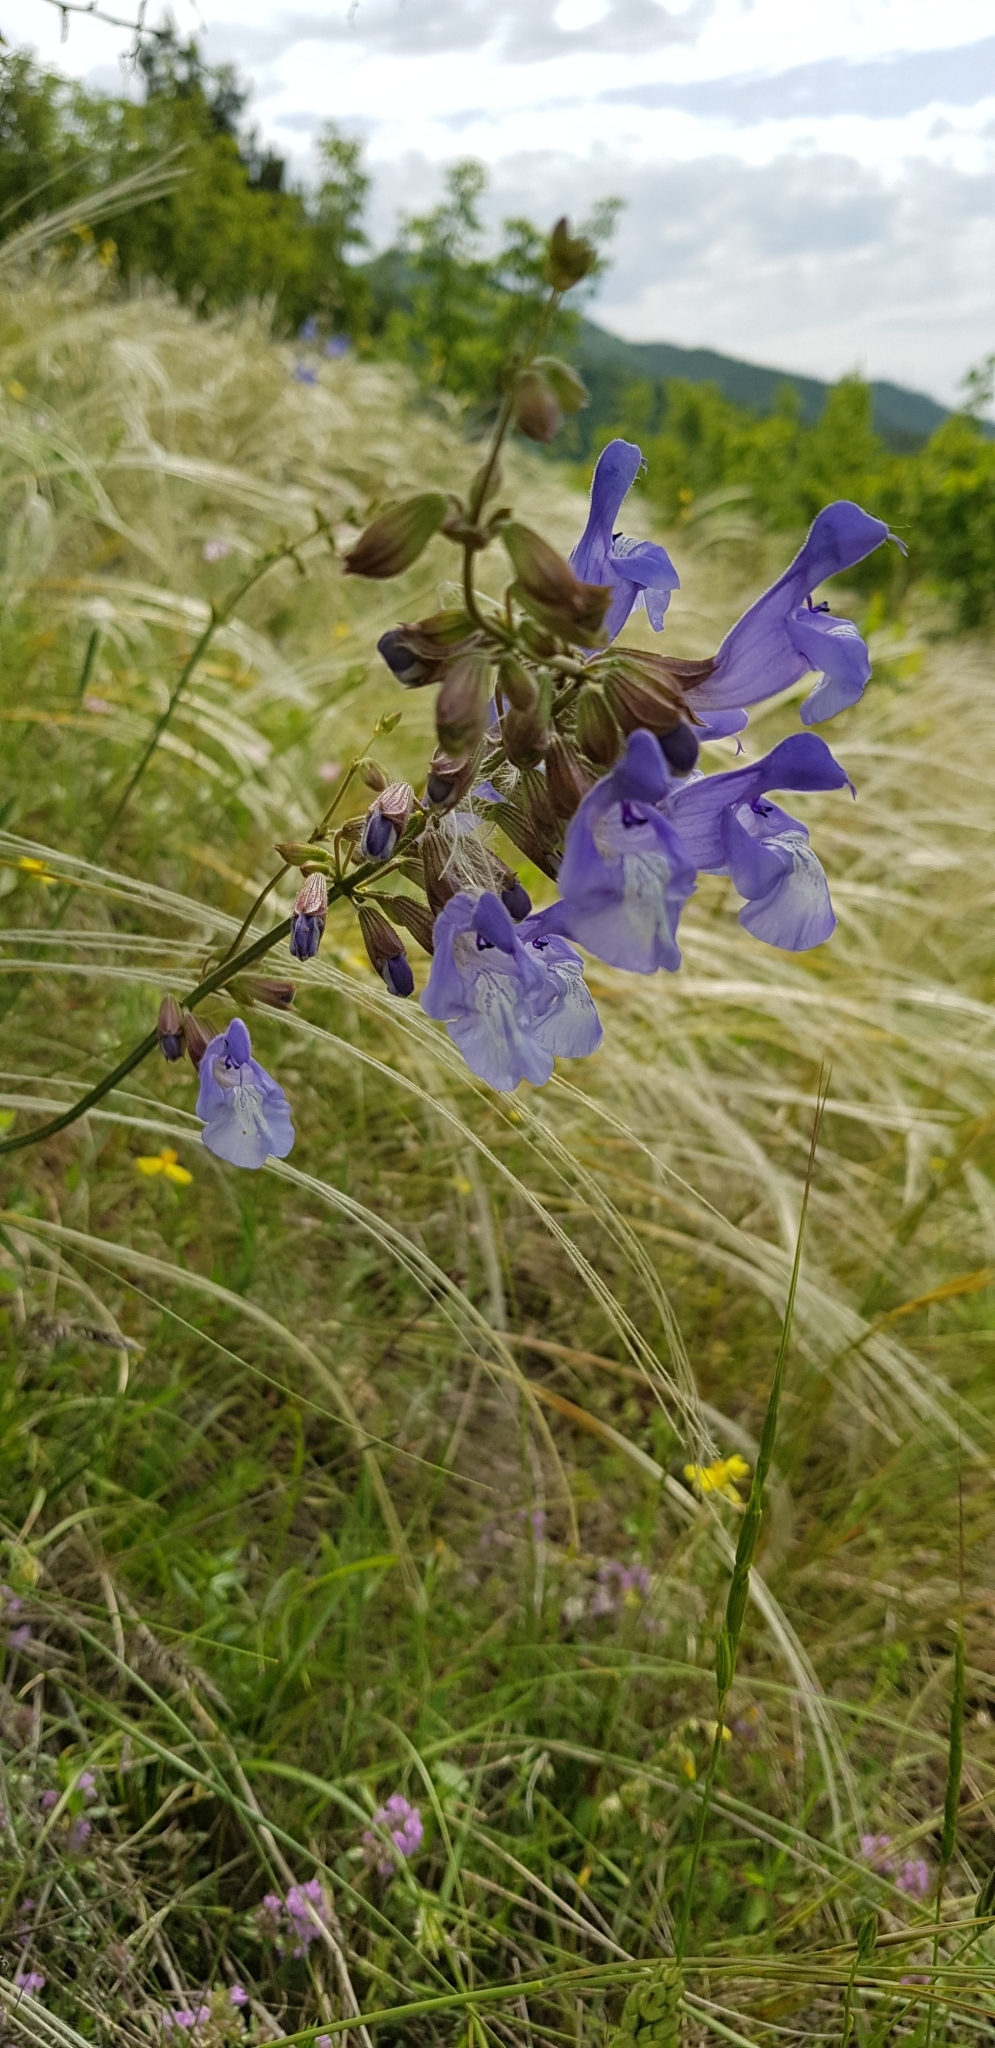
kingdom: Plantae
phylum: Tracheophyta
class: Magnoliopsida
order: Lamiales
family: Lamiaceae
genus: Salvia
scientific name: Salvia ringens
